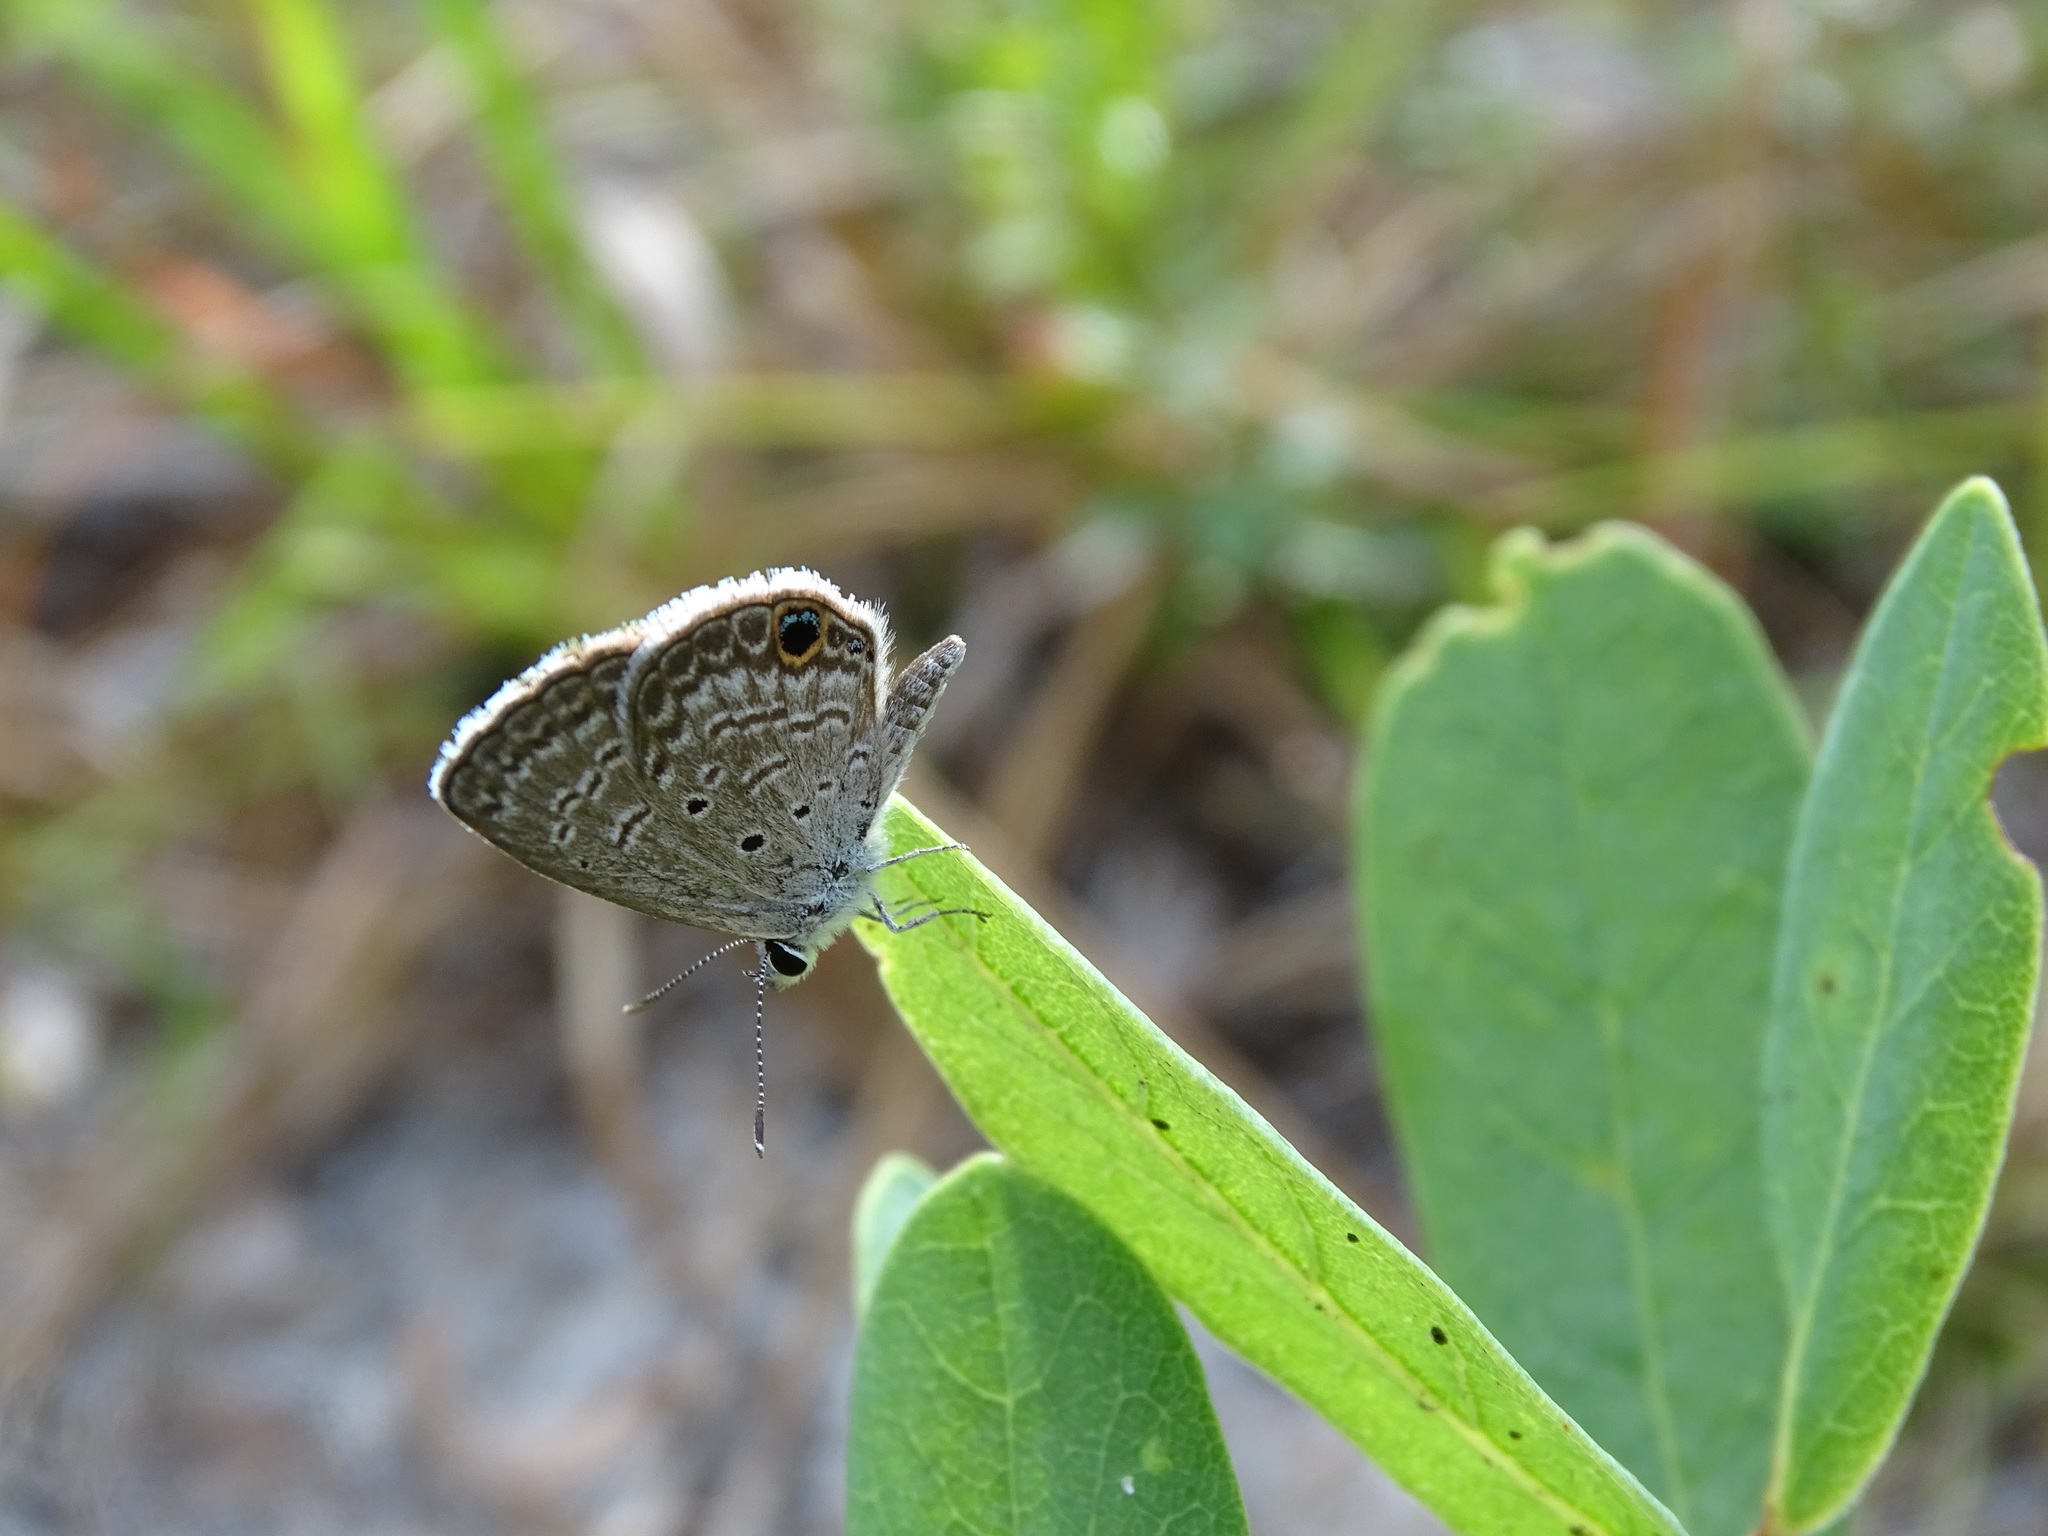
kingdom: Animalia
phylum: Arthropoda
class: Insecta
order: Lepidoptera
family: Lycaenidae
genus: Hemiargus
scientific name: Hemiargus ceraunus
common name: Ceraunus blue
